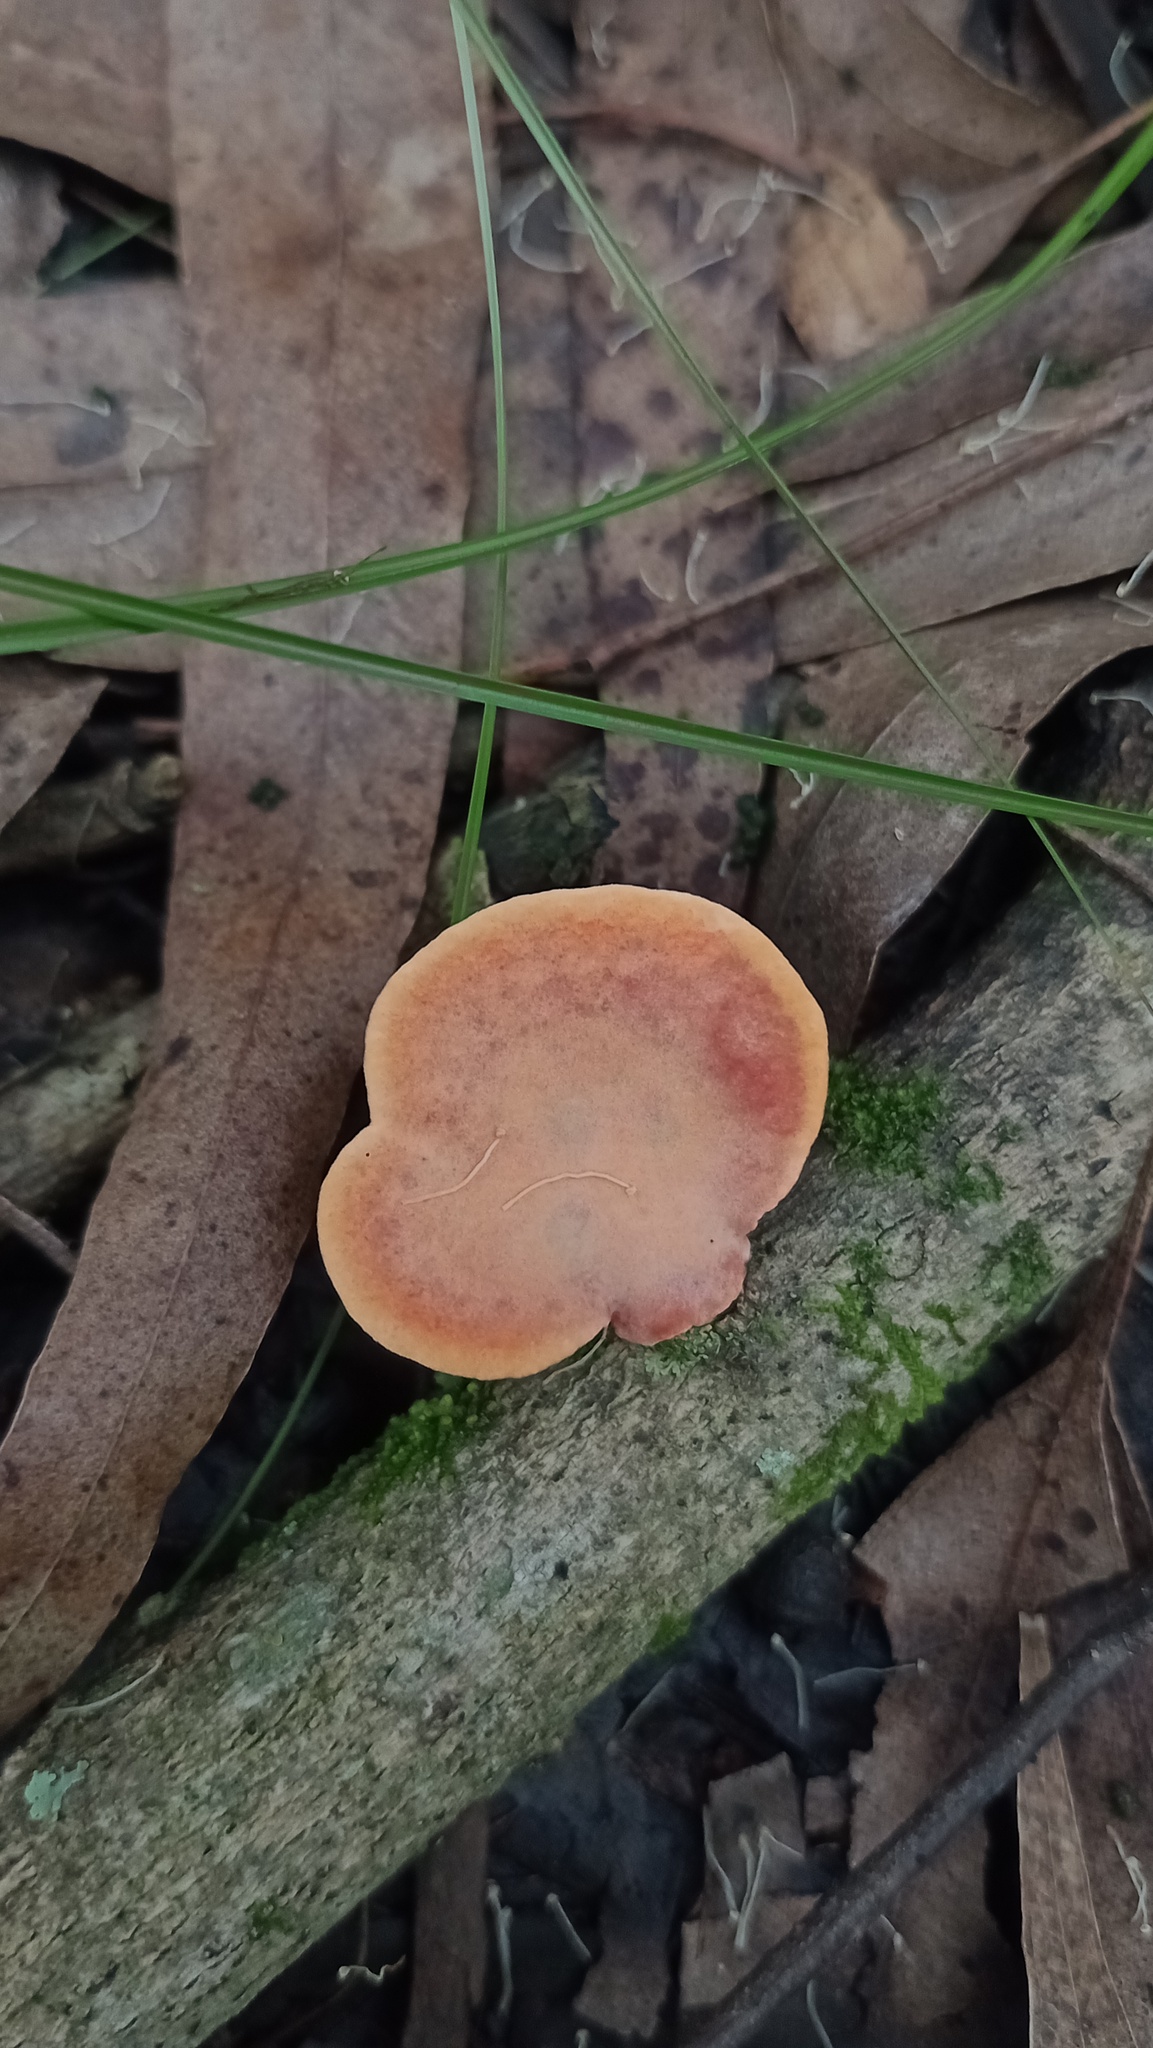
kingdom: Fungi
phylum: Basidiomycota
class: Agaricomycetes
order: Polyporales
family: Polyporaceae
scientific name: Polyporaceae
